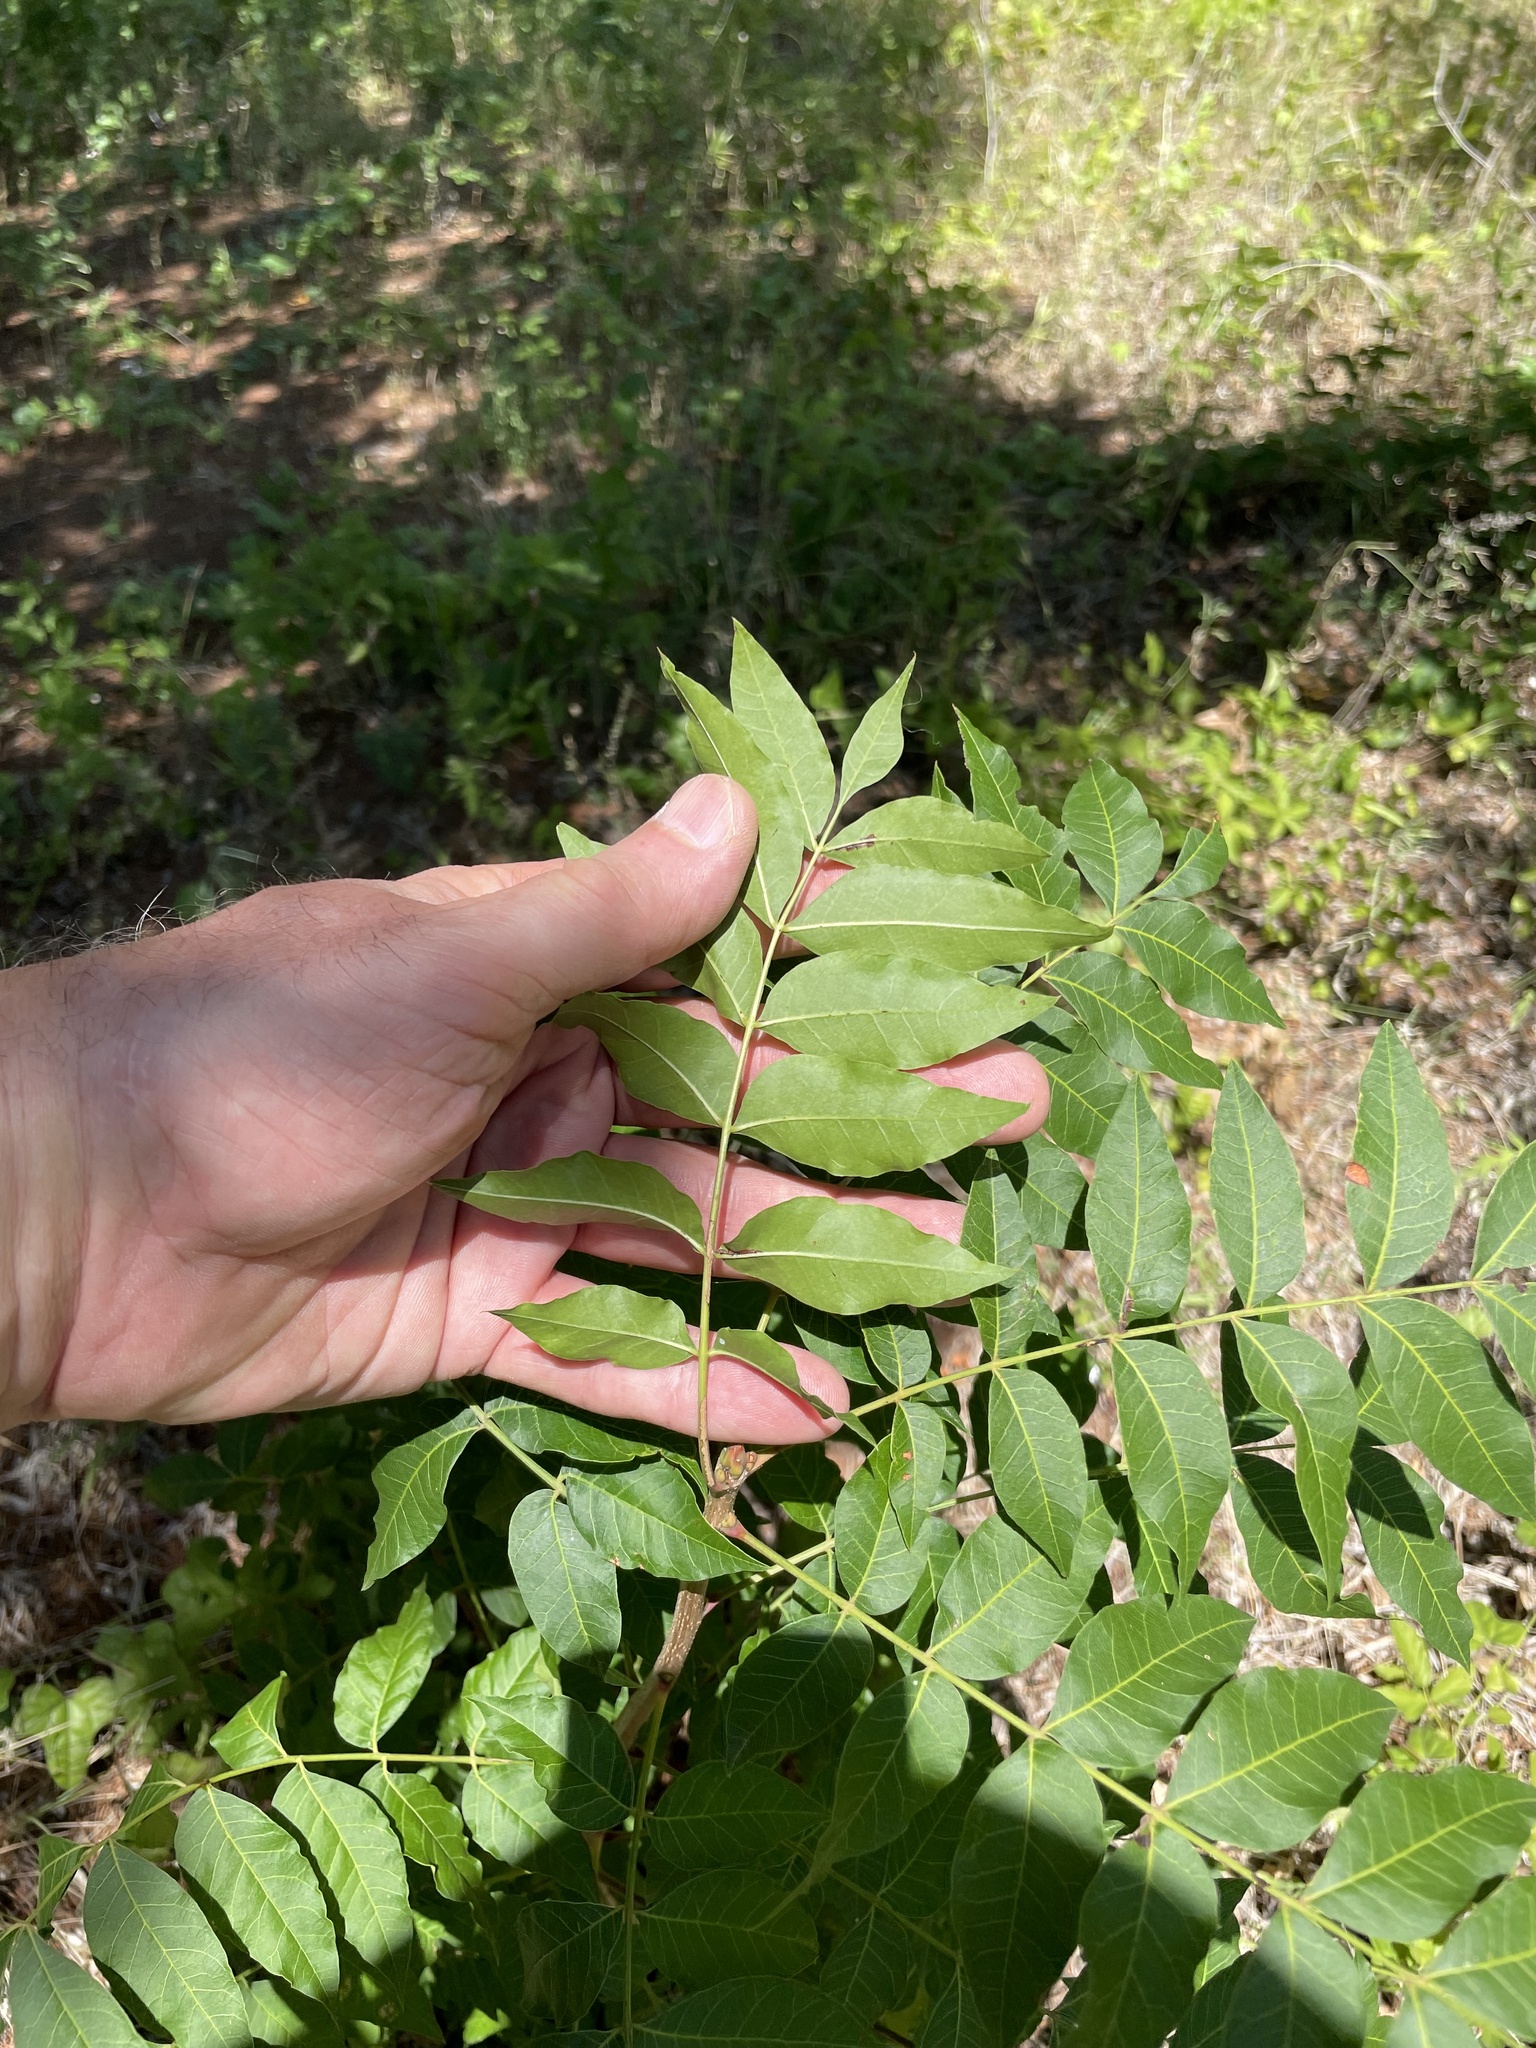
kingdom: Plantae
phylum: Tracheophyta
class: Magnoliopsida
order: Sapindales
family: Anacardiaceae
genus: Pistacia
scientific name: Pistacia chinensis
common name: Chinese pistache
